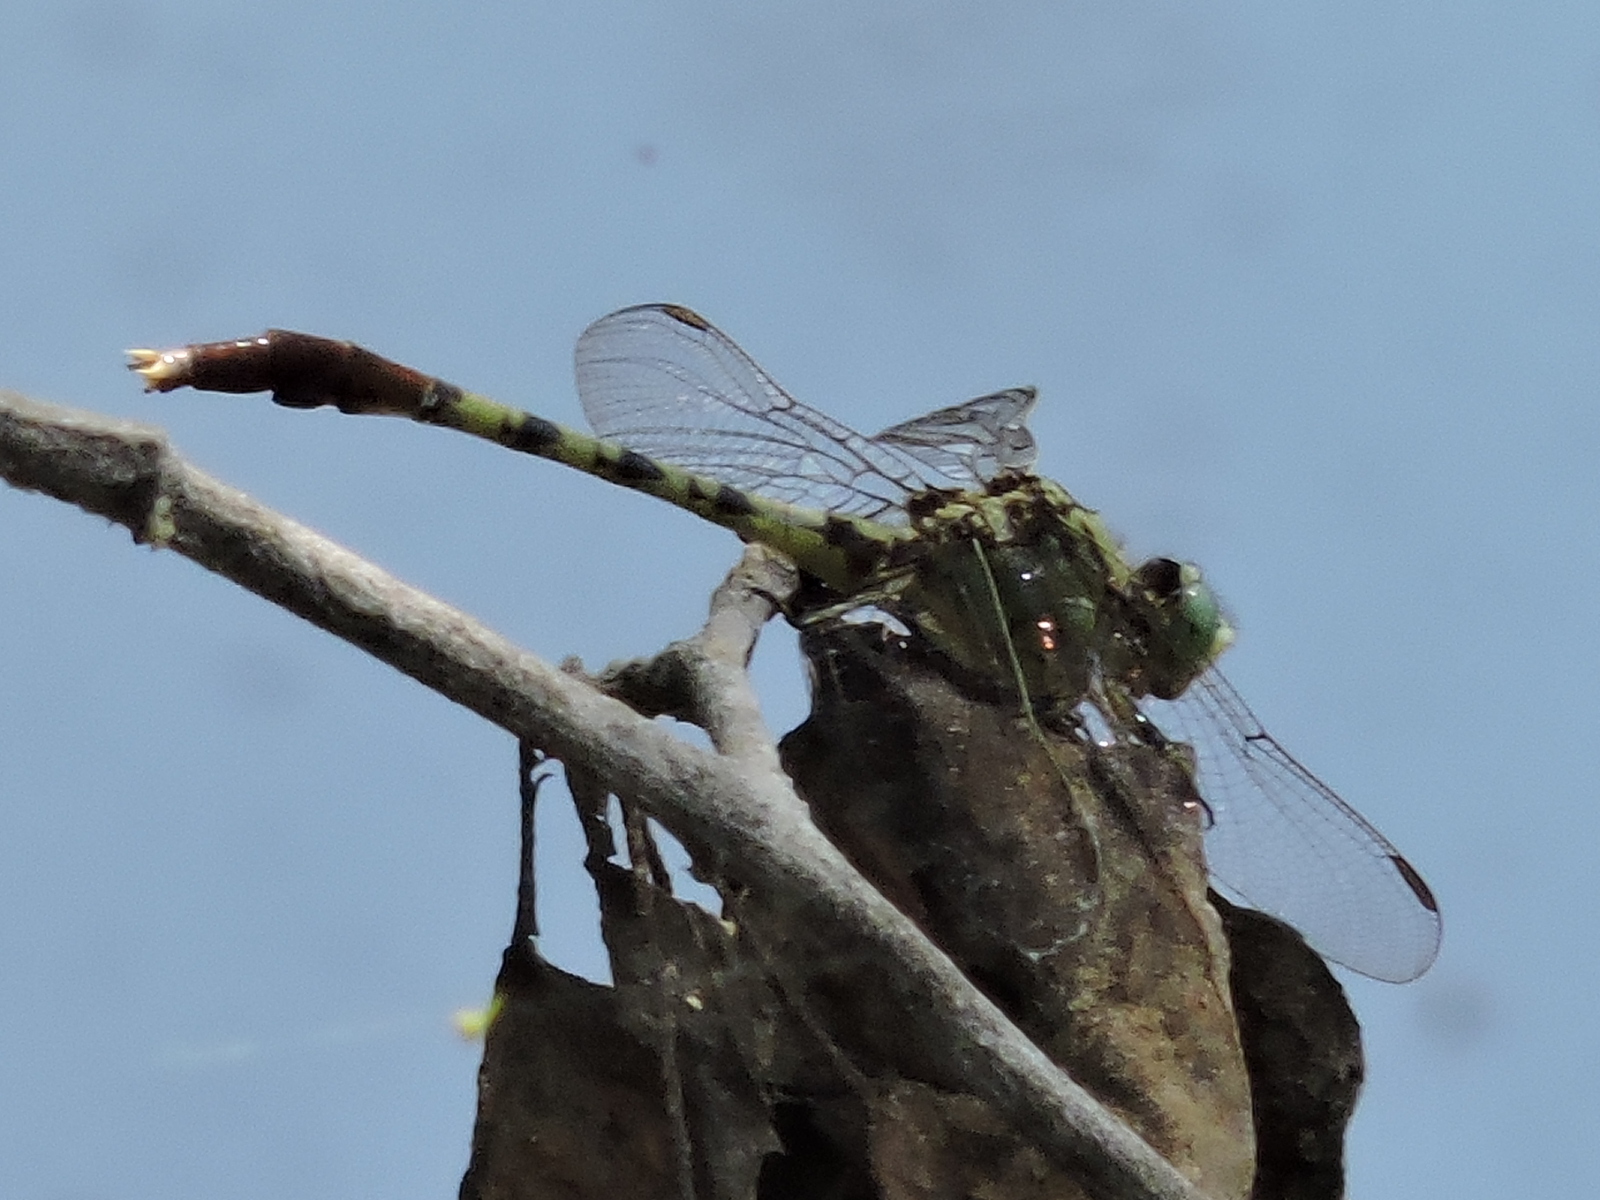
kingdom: Animalia
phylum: Arthropoda
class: Insecta
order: Odonata
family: Gomphidae
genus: Arigomphus
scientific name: Arigomphus submedianus
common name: Jade clubtail
